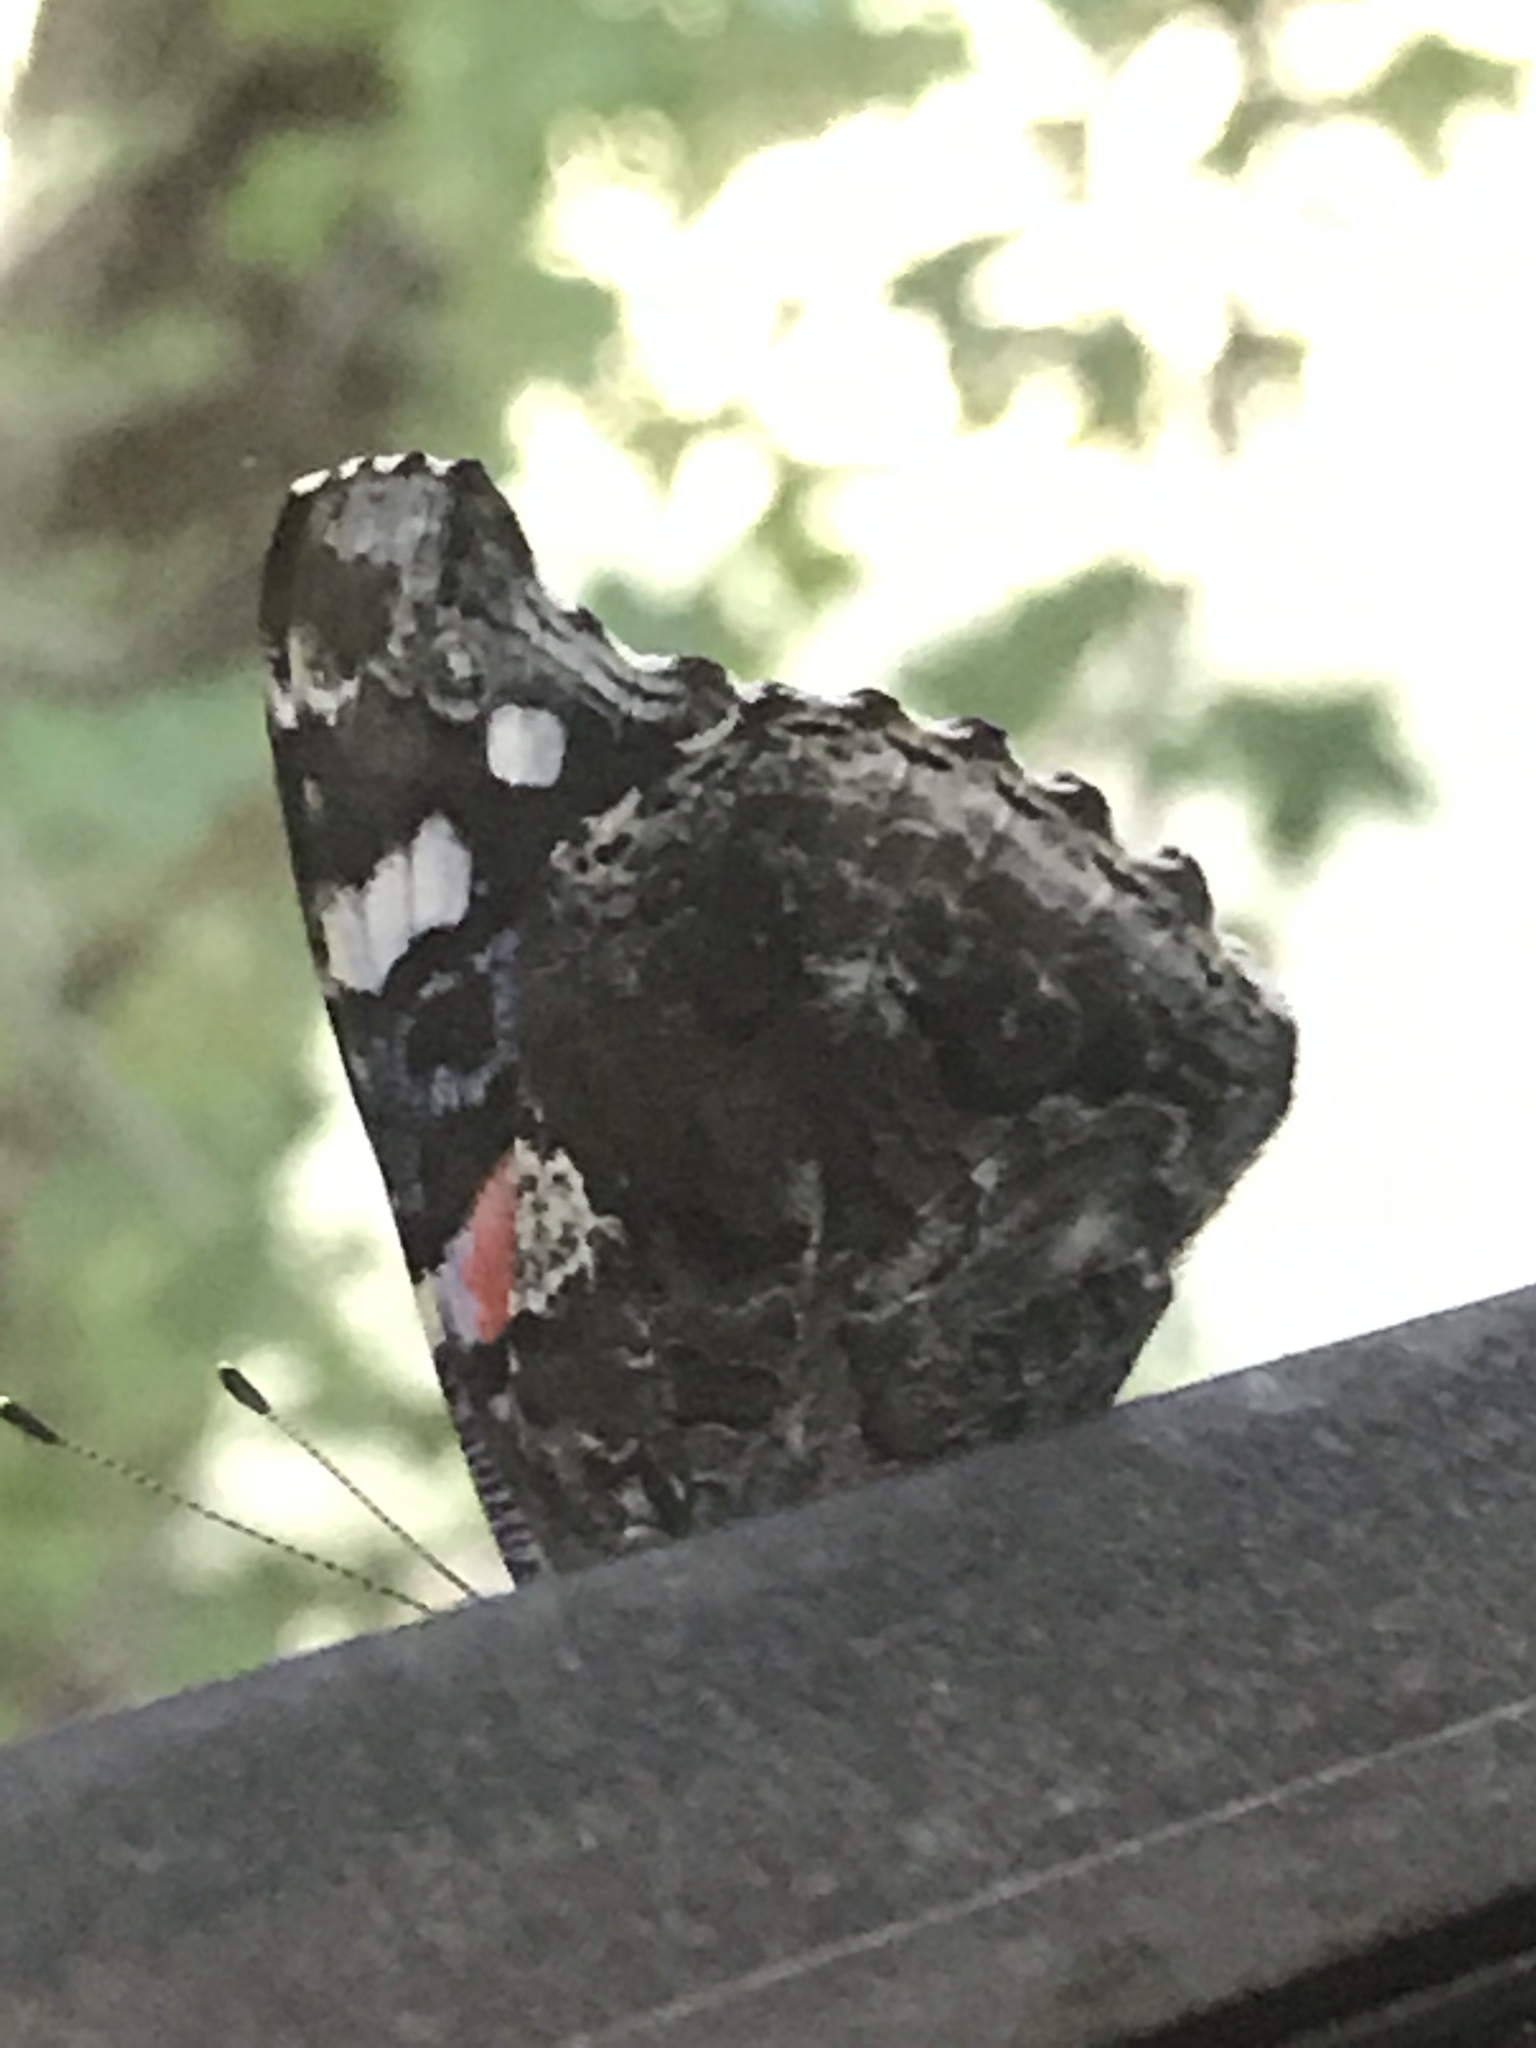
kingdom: Animalia
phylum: Arthropoda
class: Insecta
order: Lepidoptera
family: Nymphalidae
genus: Vanessa
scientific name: Vanessa atalanta
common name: Red admiral
